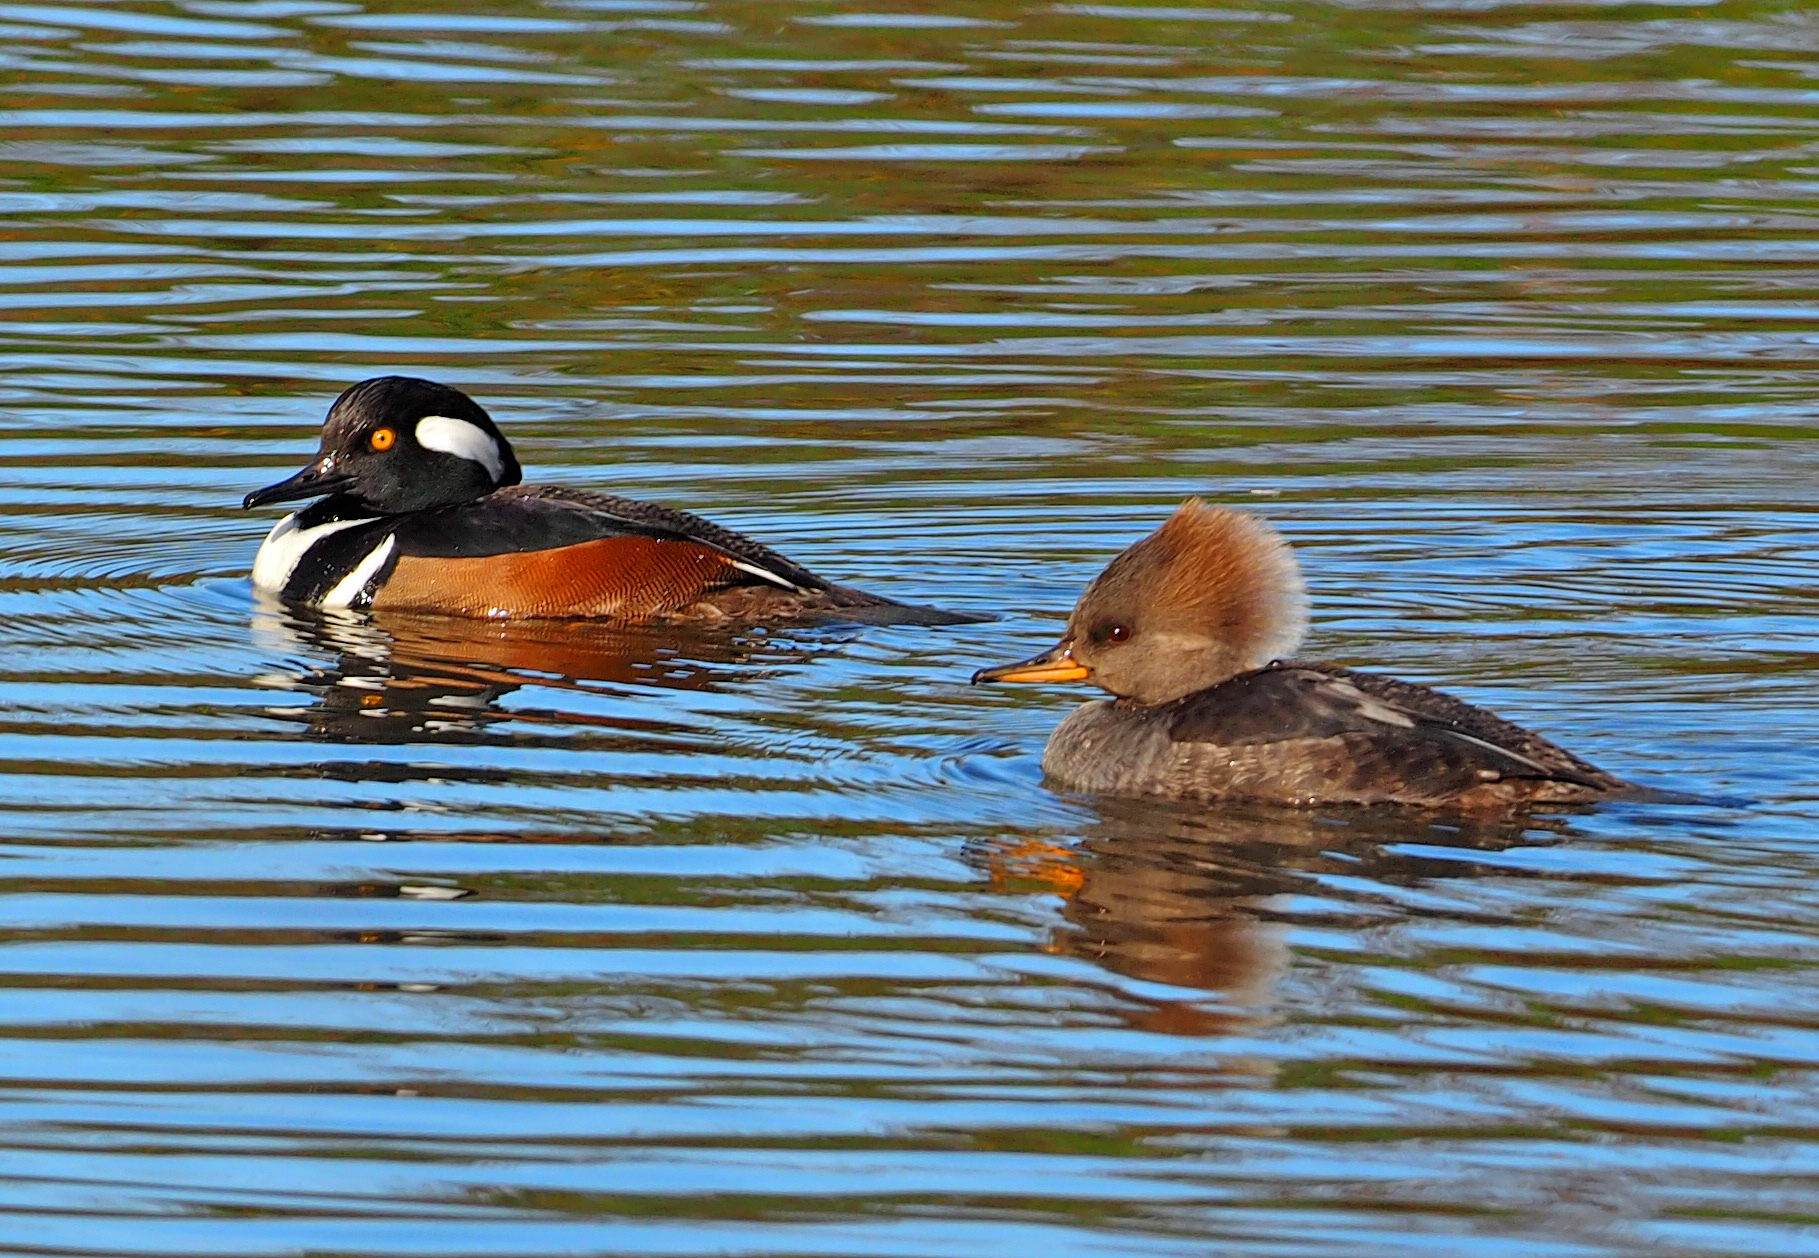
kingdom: Animalia
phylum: Chordata
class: Aves
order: Anseriformes
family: Anatidae
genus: Lophodytes
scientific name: Lophodytes cucullatus
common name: Hooded merganser
